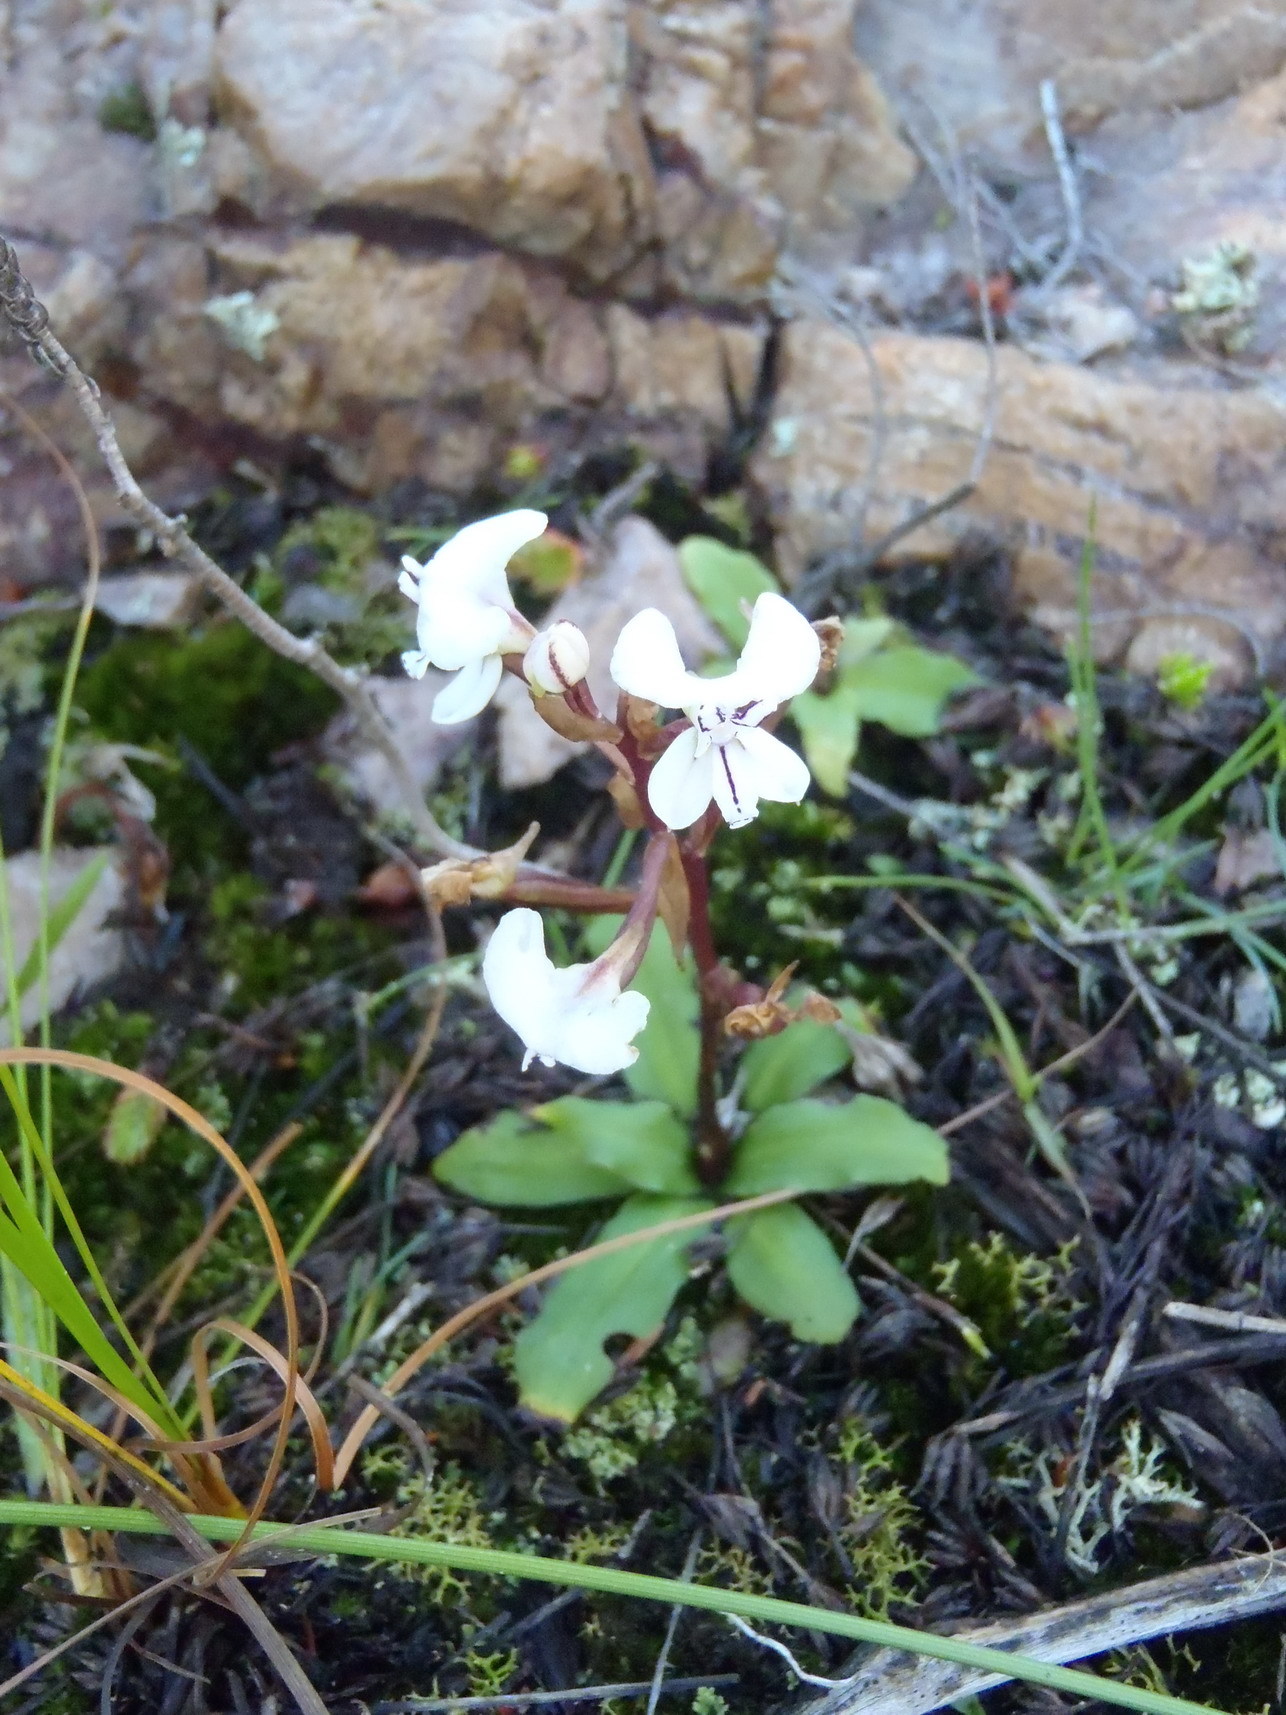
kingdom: Plantae
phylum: Tracheophyta
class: Liliopsida
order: Asparagales
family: Orchidaceae
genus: Disa
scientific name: Disa sagittalis
